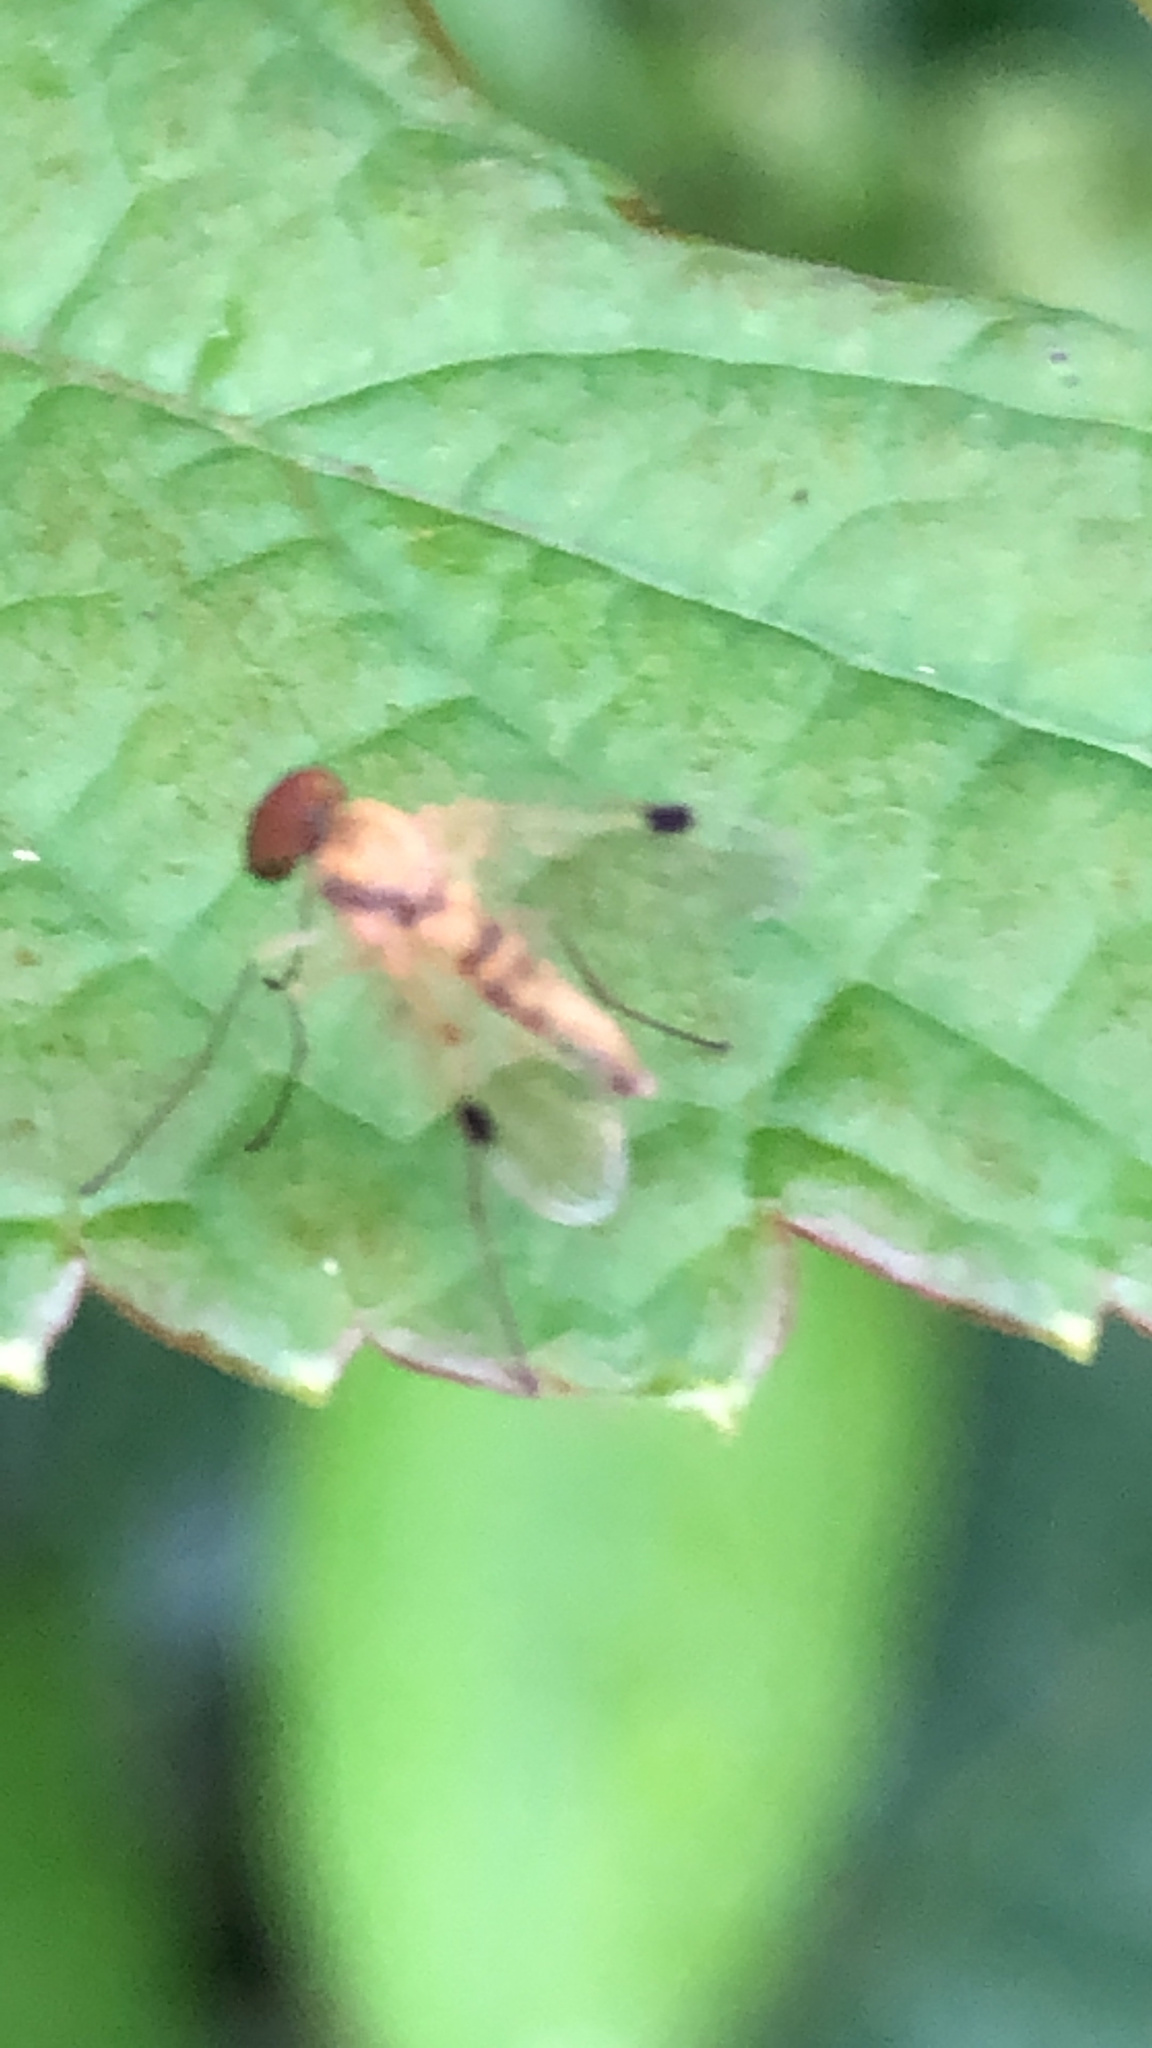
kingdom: Animalia
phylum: Arthropoda
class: Insecta
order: Diptera
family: Rhagionidae
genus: Chrysopilus
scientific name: Chrysopilus modestus
